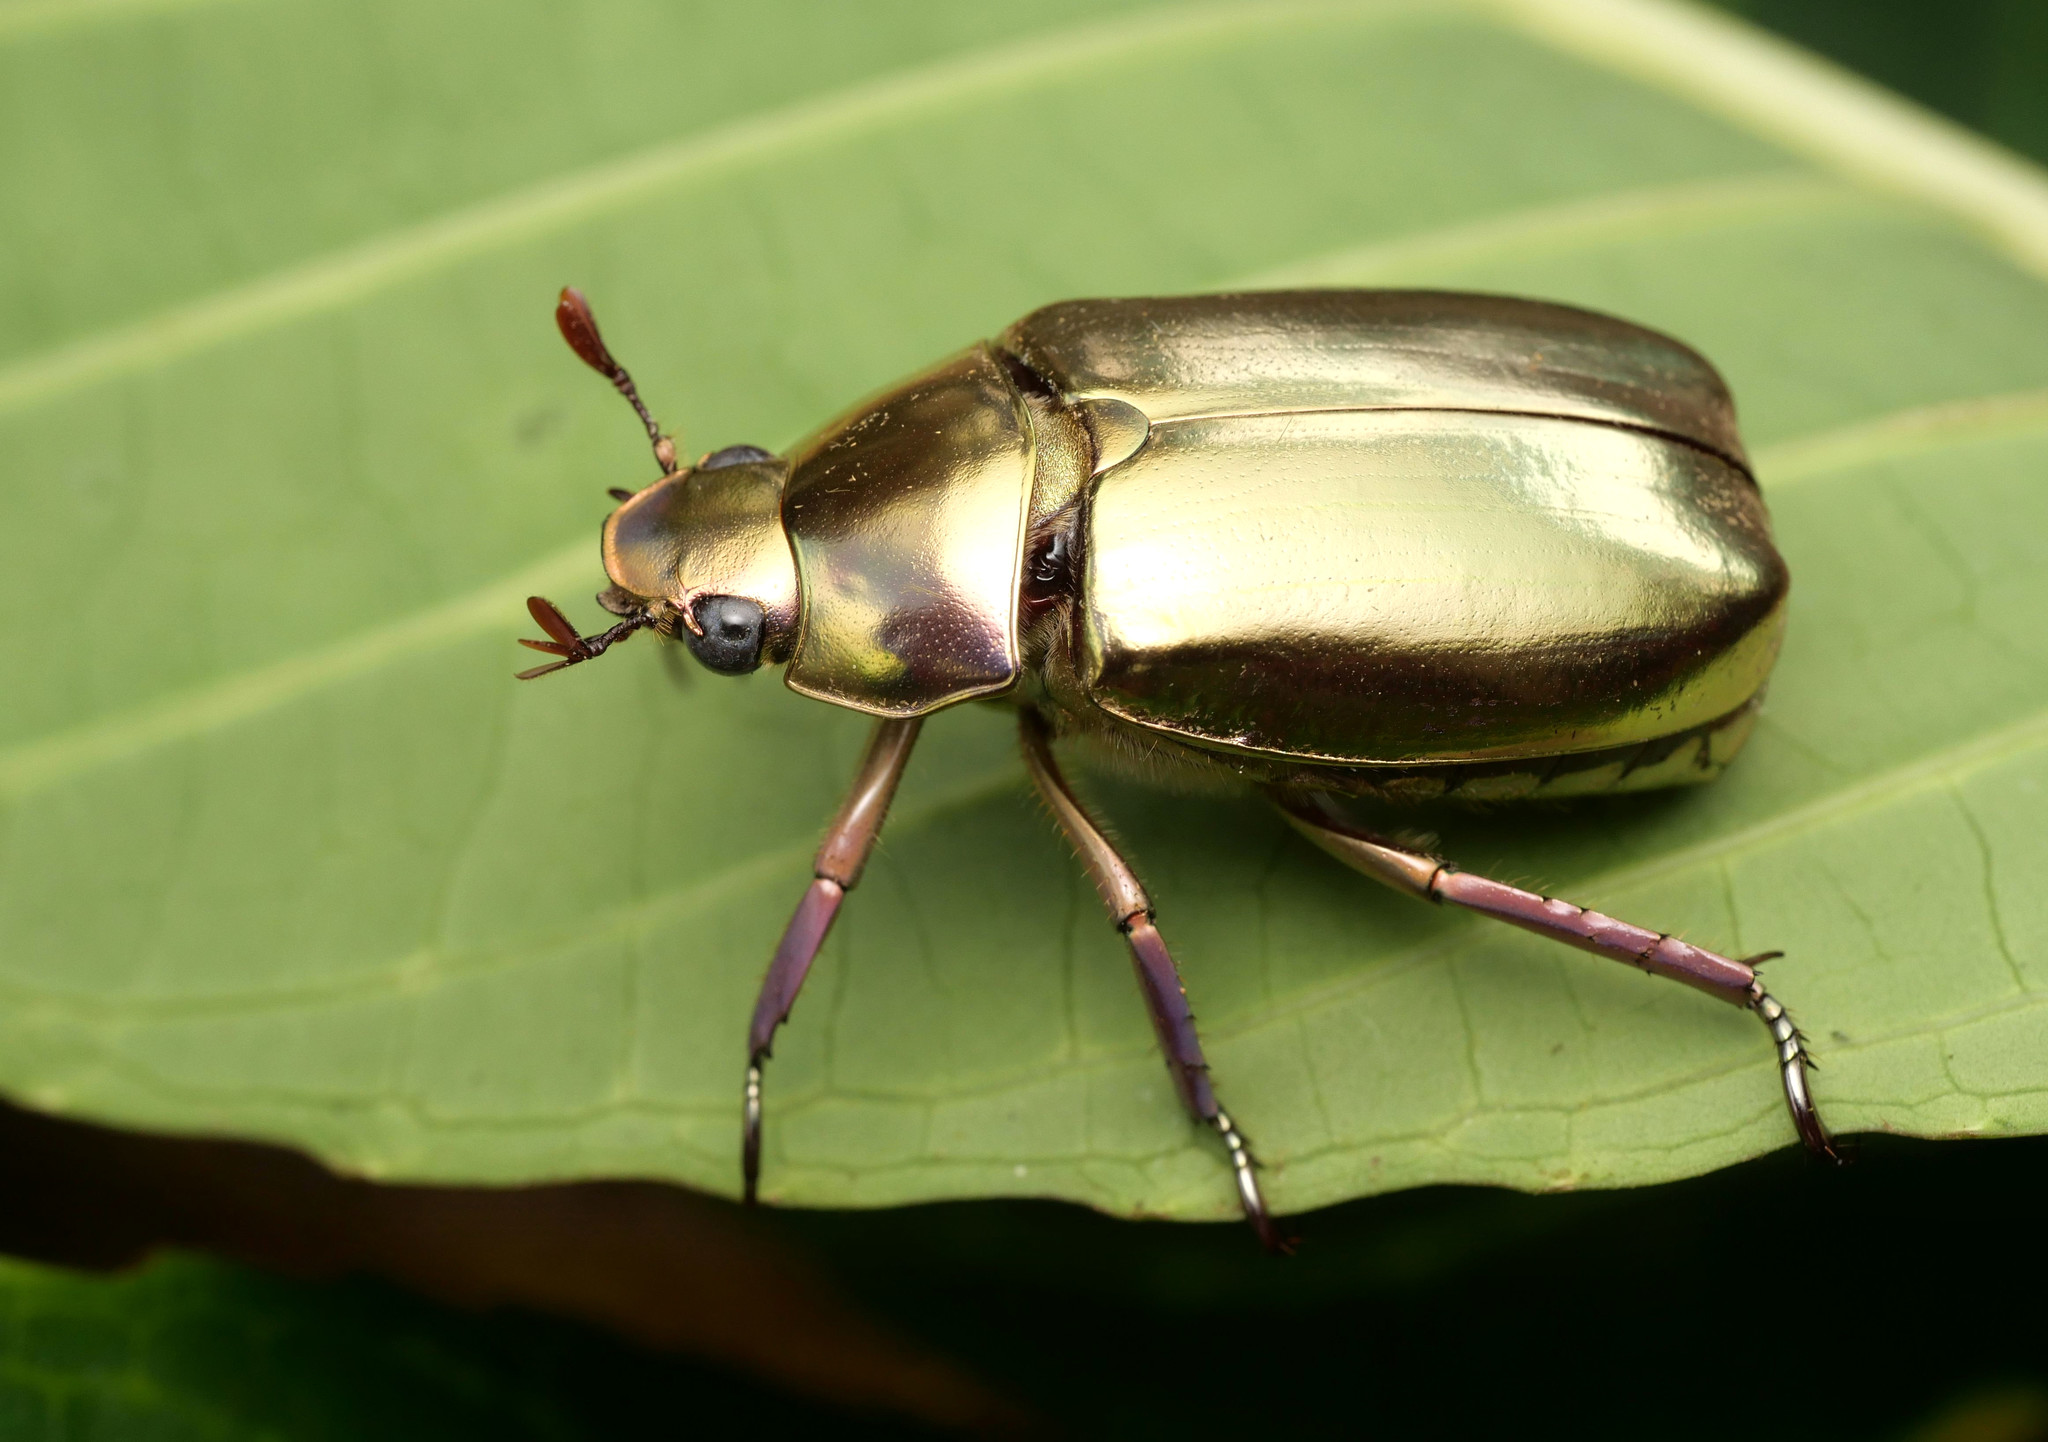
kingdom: Animalia
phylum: Arthropoda
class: Insecta
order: Coleoptera
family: Scarabaeidae
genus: Chrysina
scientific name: Chrysina argenteola
